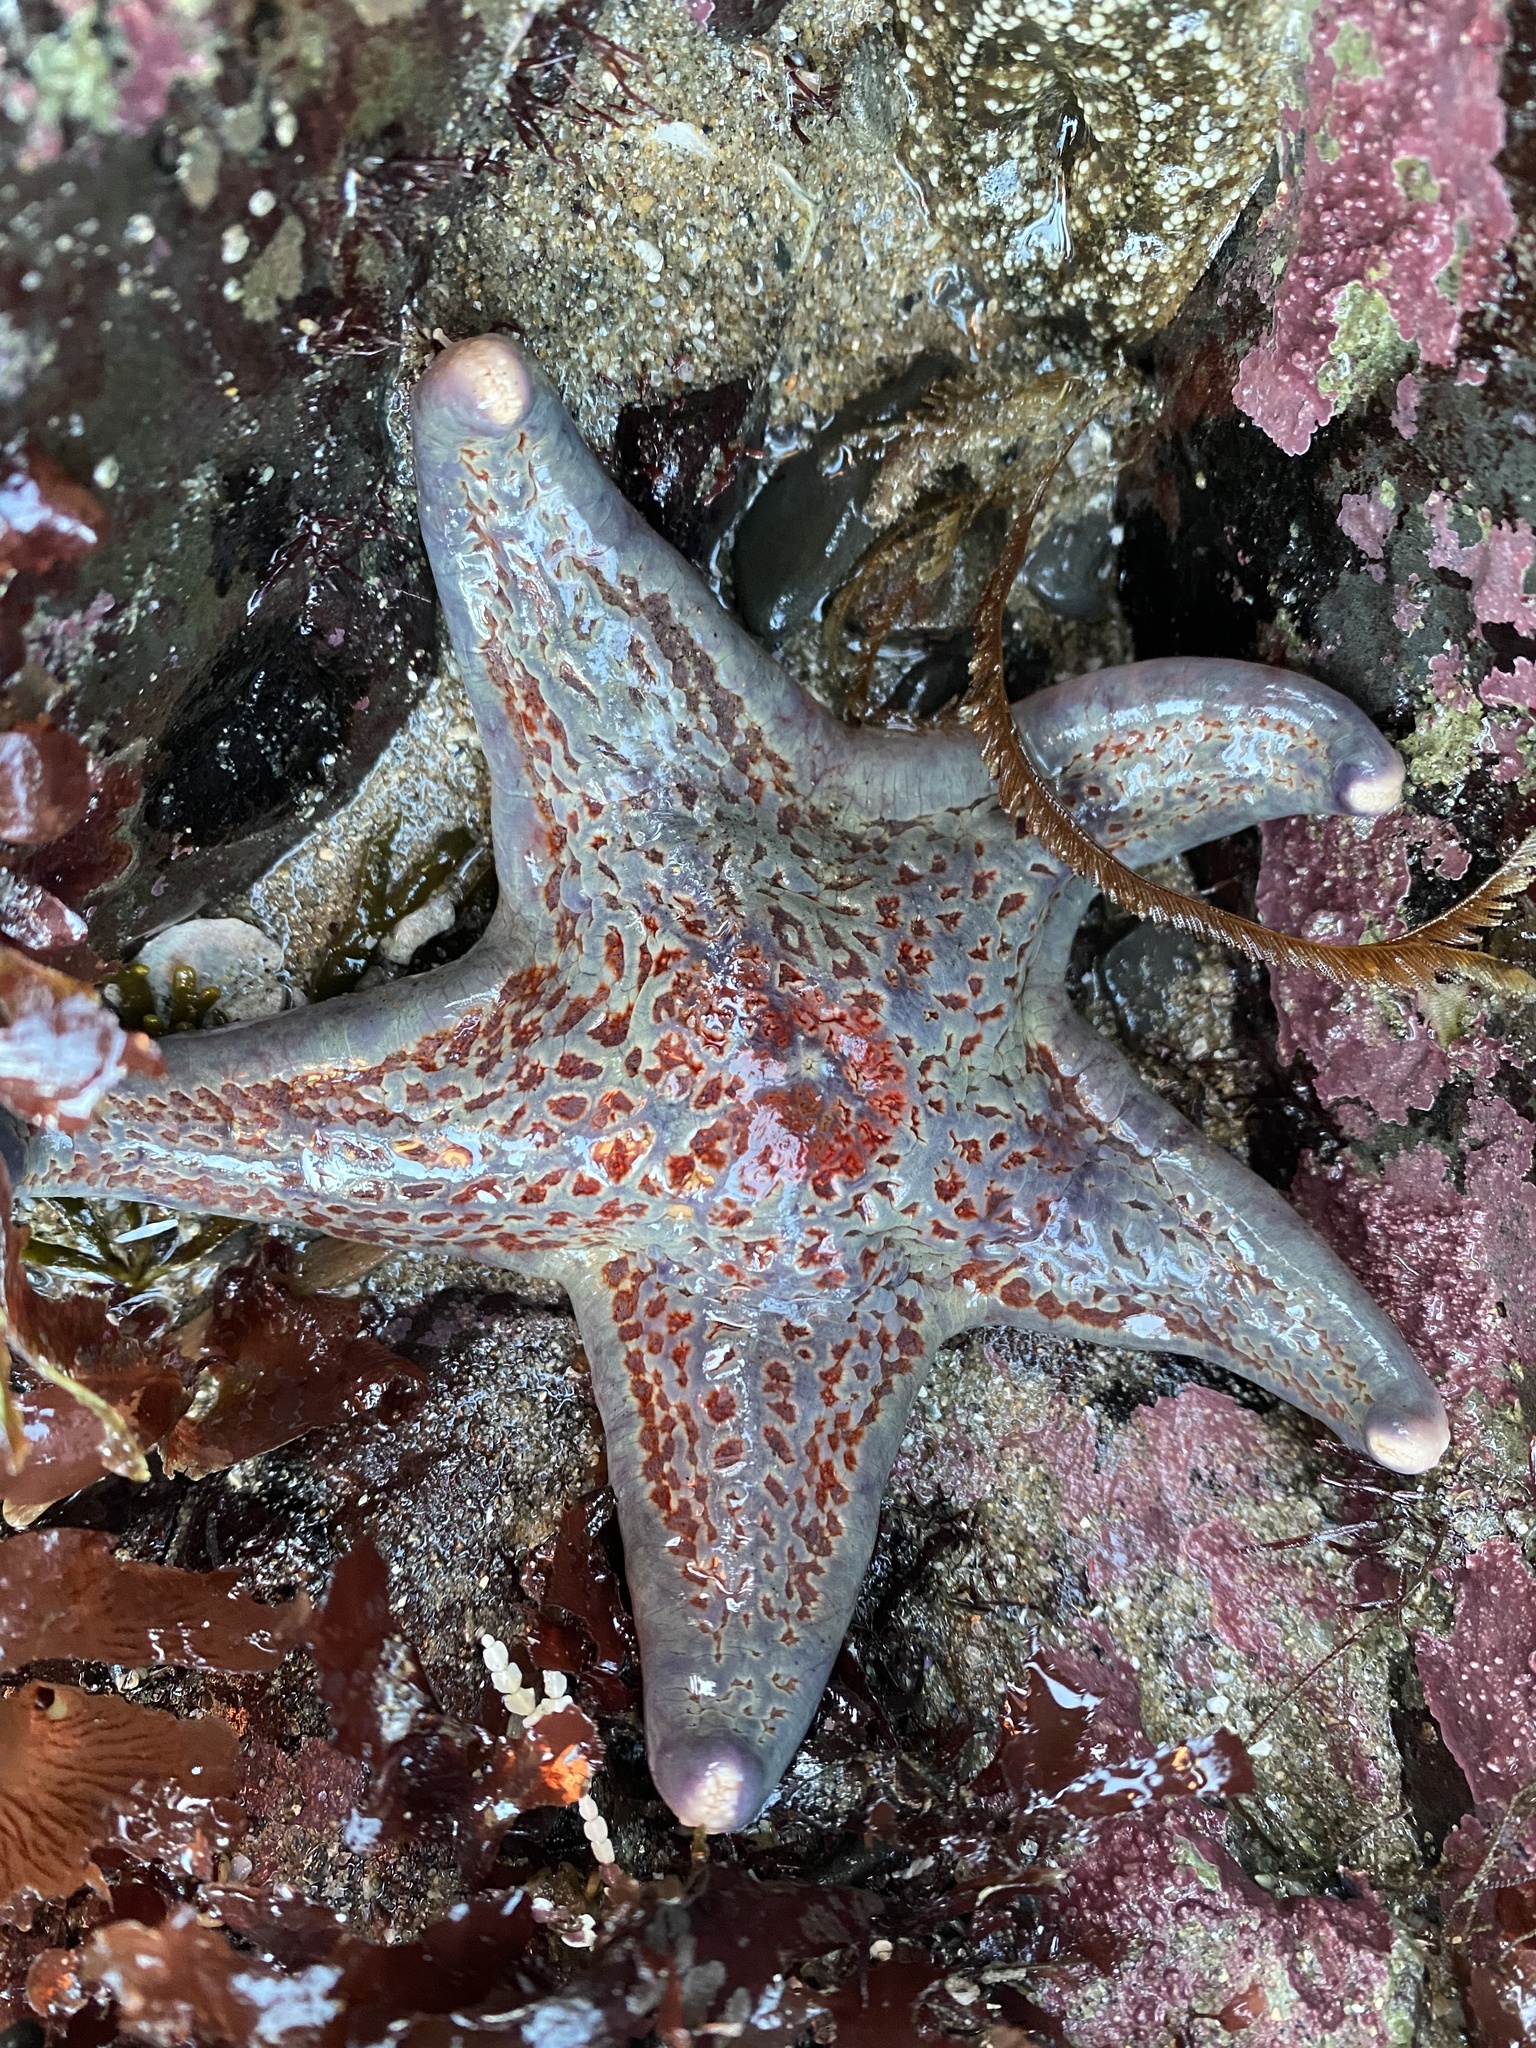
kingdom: Animalia
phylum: Echinodermata
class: Asteroidea
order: Valvatida
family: Asteropseidae
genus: Dermasterias
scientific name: Dermasterias imbricata
